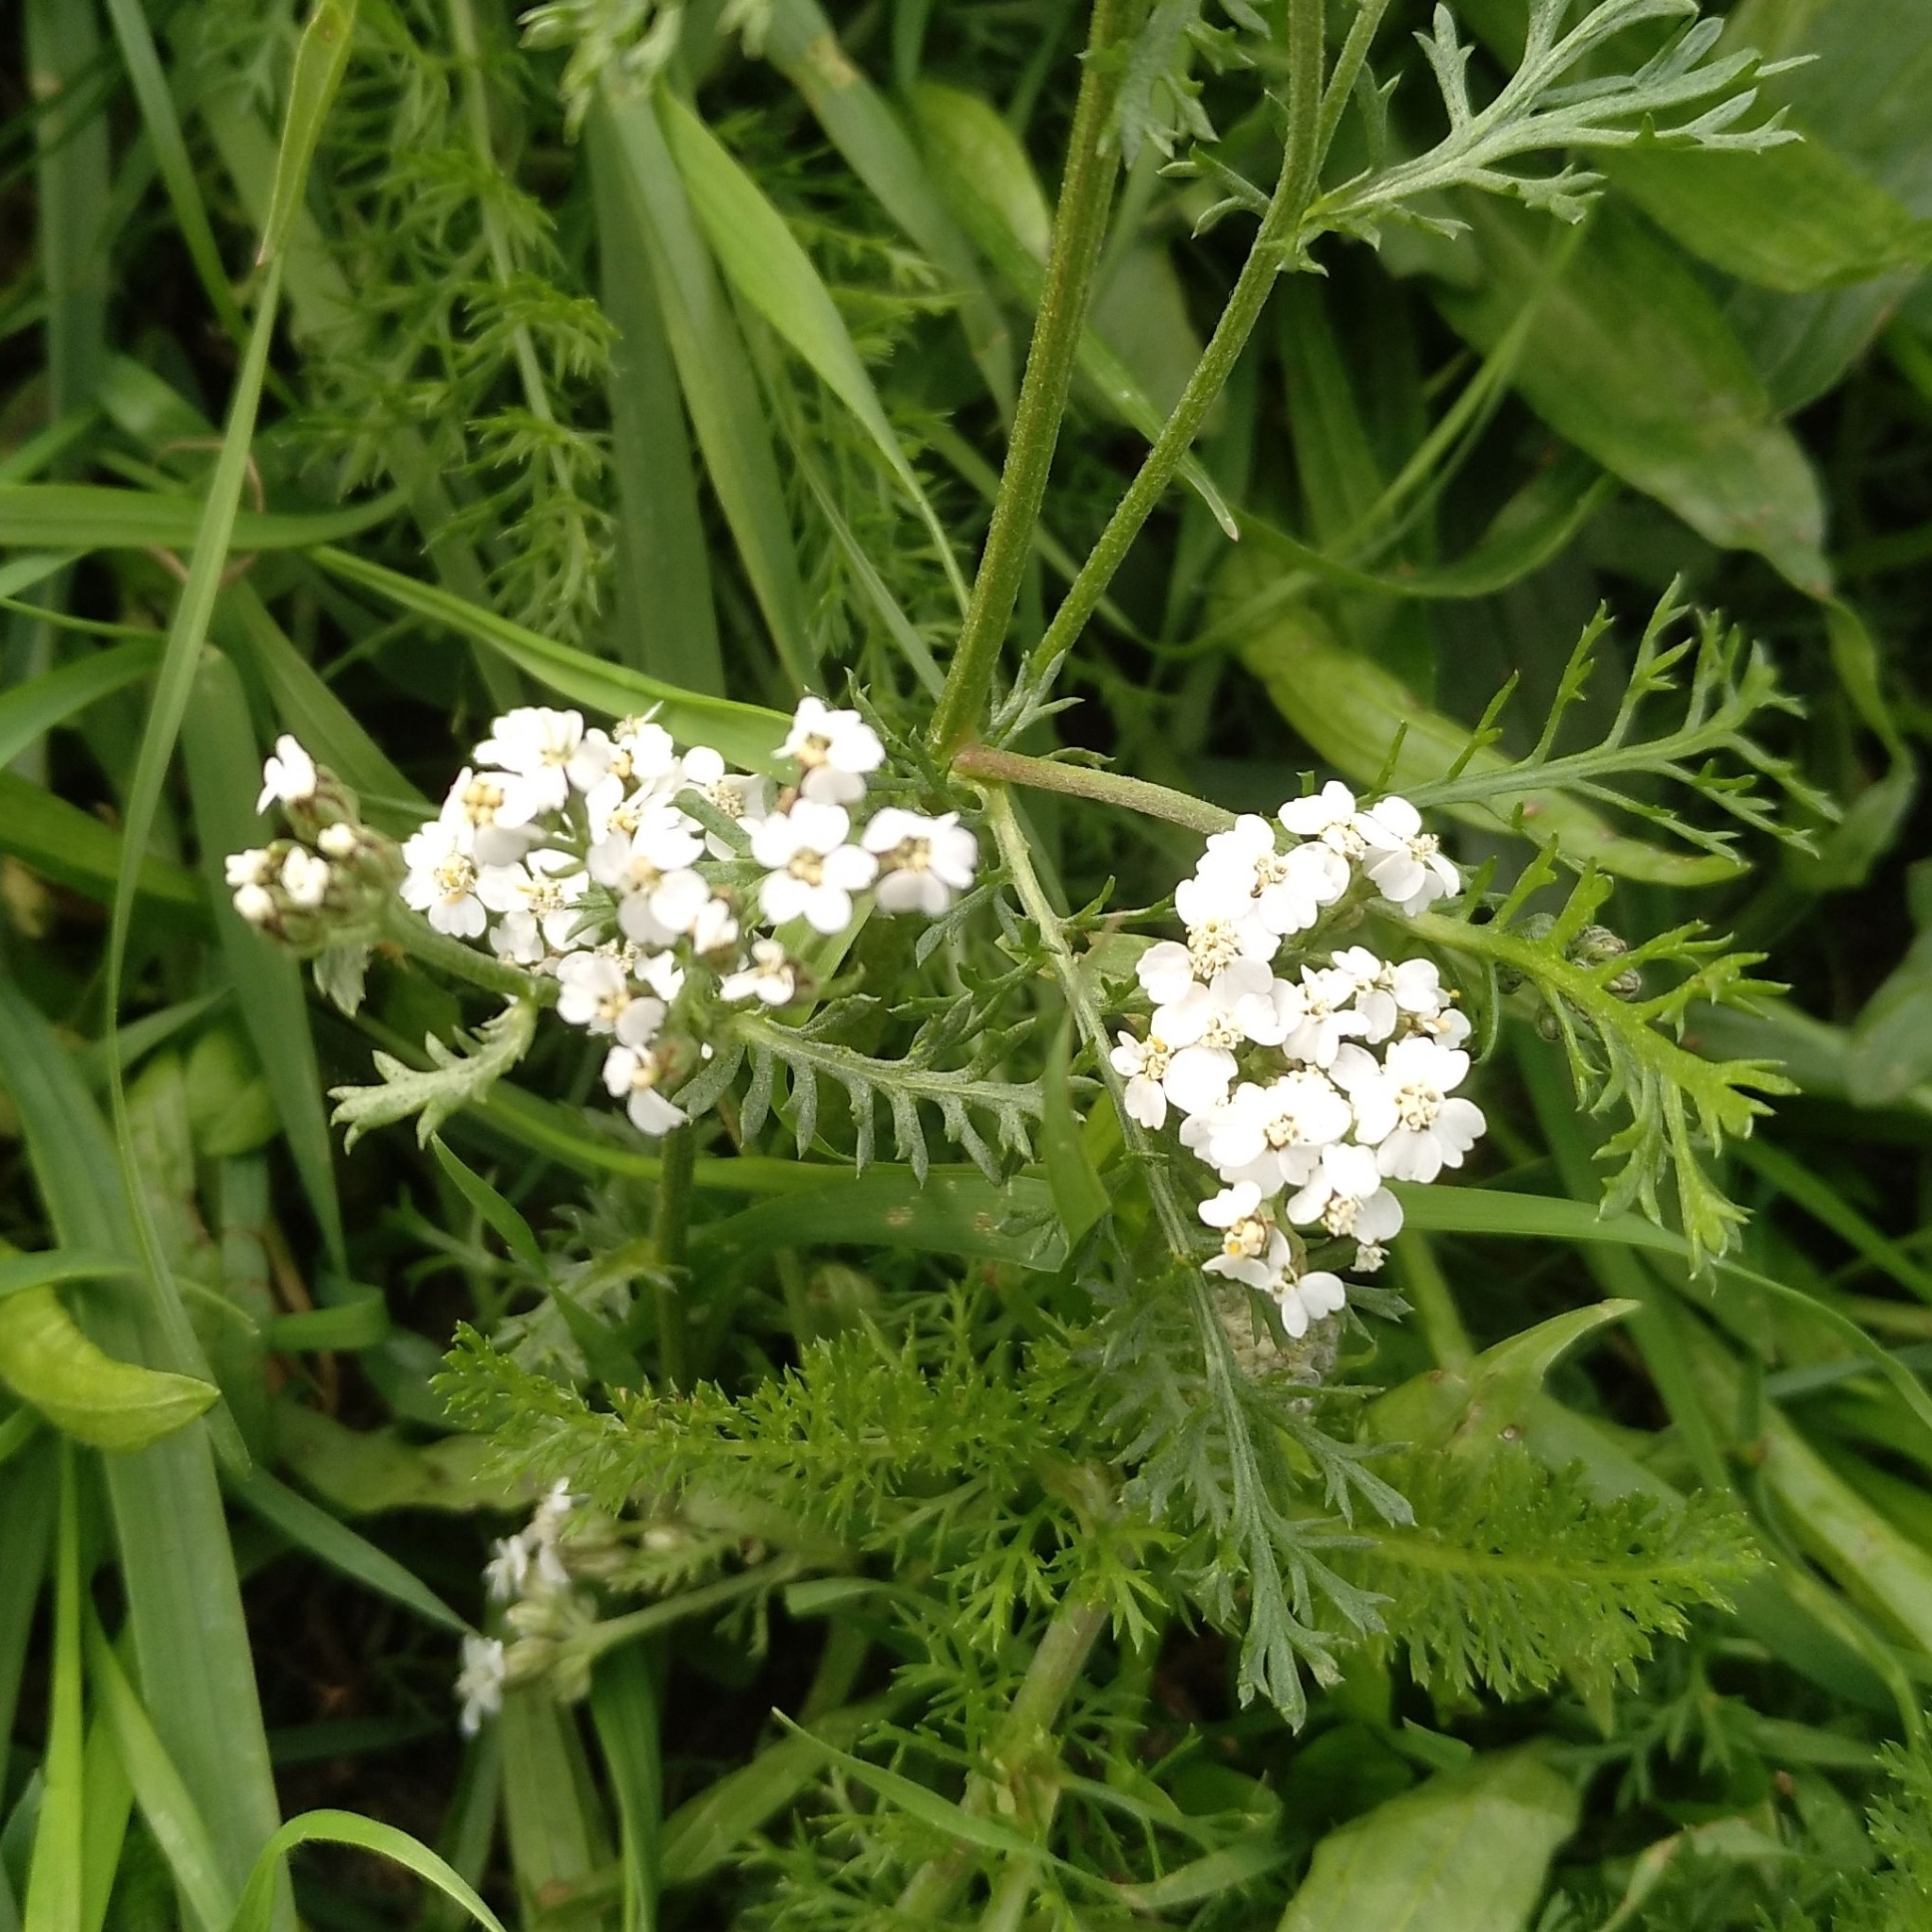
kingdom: Plantae
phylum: Tracheophyta
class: Magnoliopsida
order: Asterales
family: Asteraceae
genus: Achillea
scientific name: Achillea millefolium
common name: Yarrow
